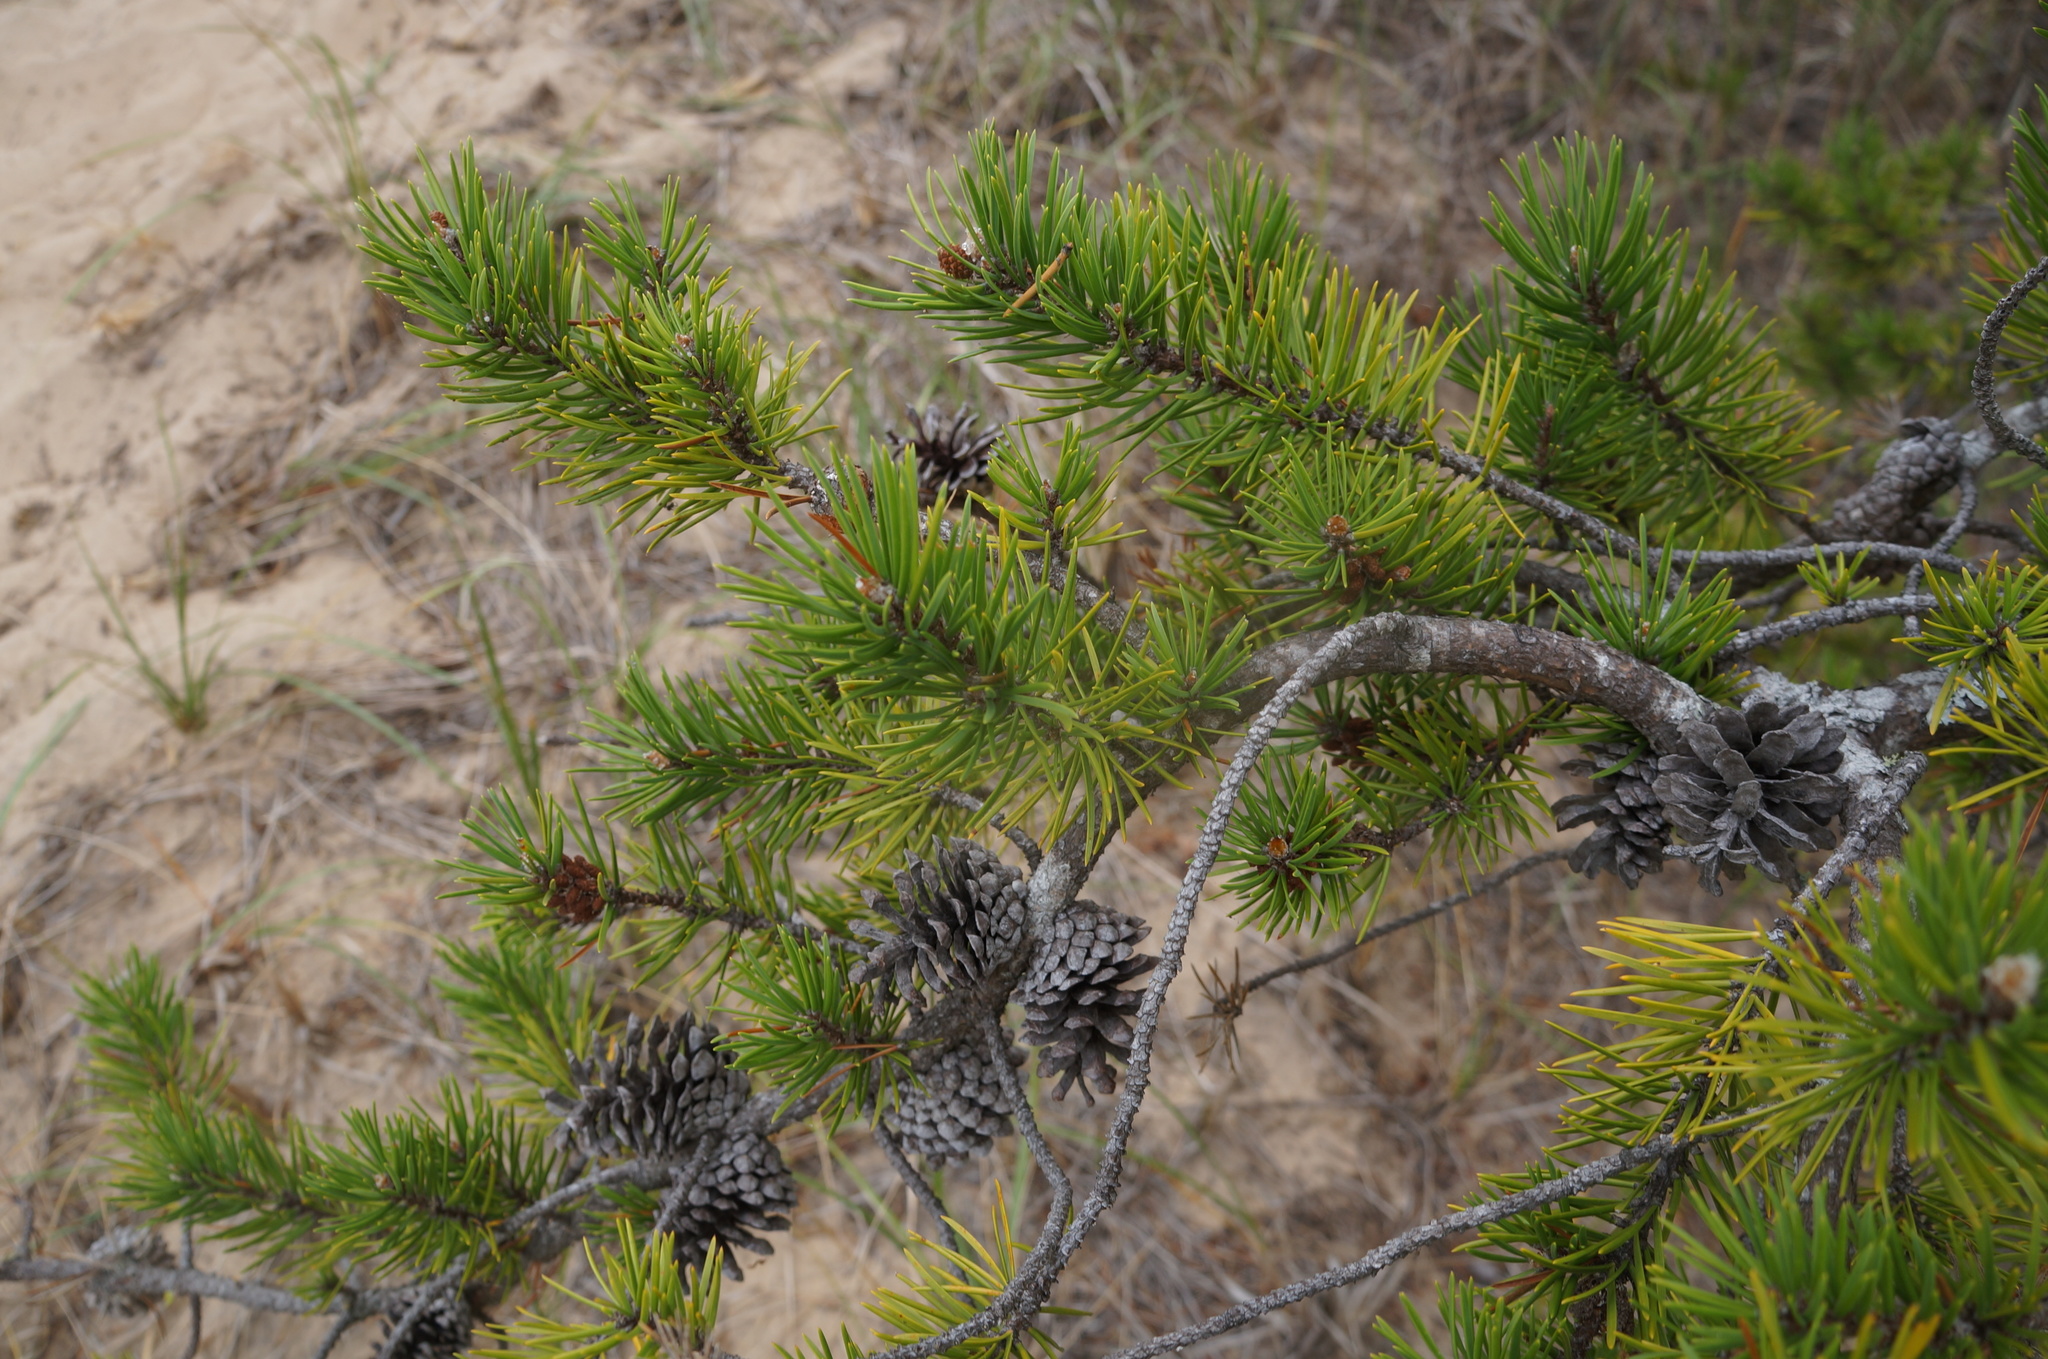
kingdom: Plantae
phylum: Tracheophyta
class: Pinopsida
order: Pinales
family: Pinaceae
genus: Pinus
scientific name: Pinus banksiana
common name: Jack pine
